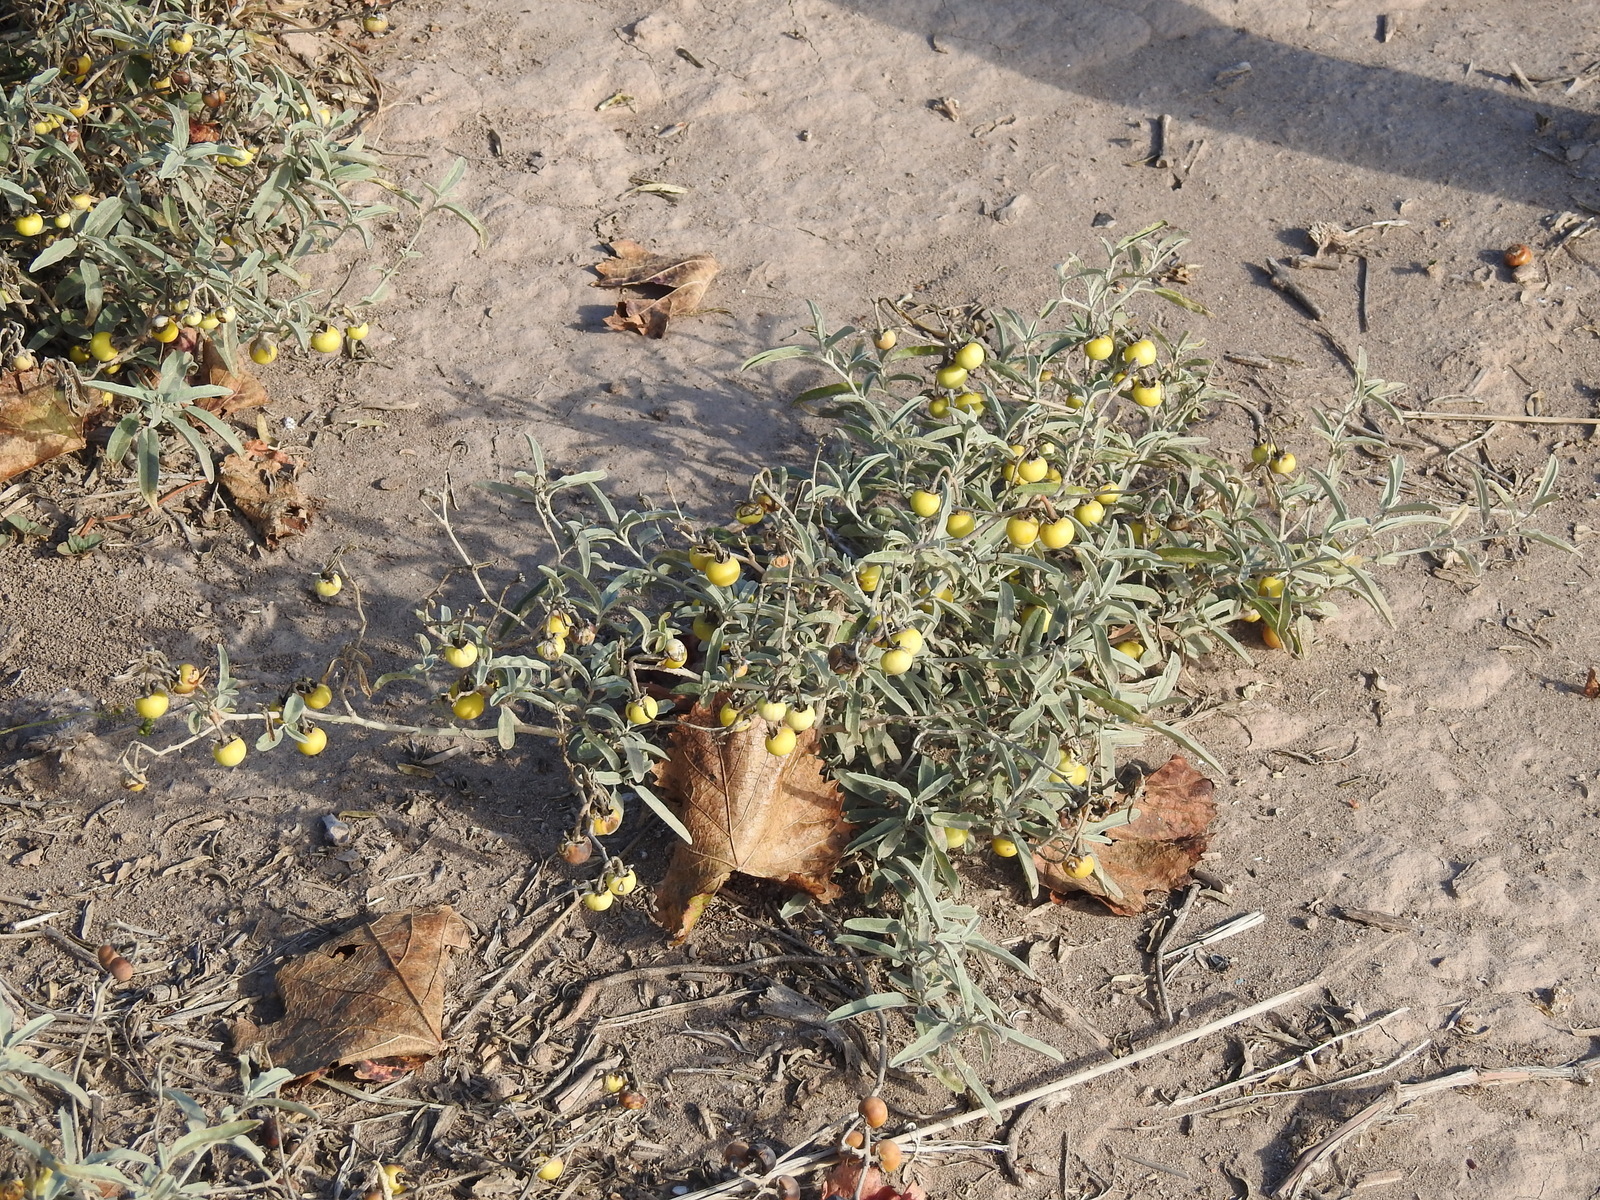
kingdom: Plantae
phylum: Tracheophyta
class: Magnoliopsida
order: Solanales
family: Solanaceae
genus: Solanum
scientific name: Solanum elaeagnifolium
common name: Silverleaf nightshade
